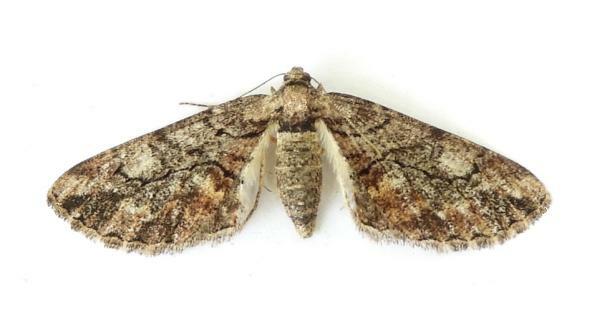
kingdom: Animalia
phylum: Arthropoda
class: Insecta
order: Lepidoptera
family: Geometridae
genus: Parapheromia
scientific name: Parapheromia falsata
